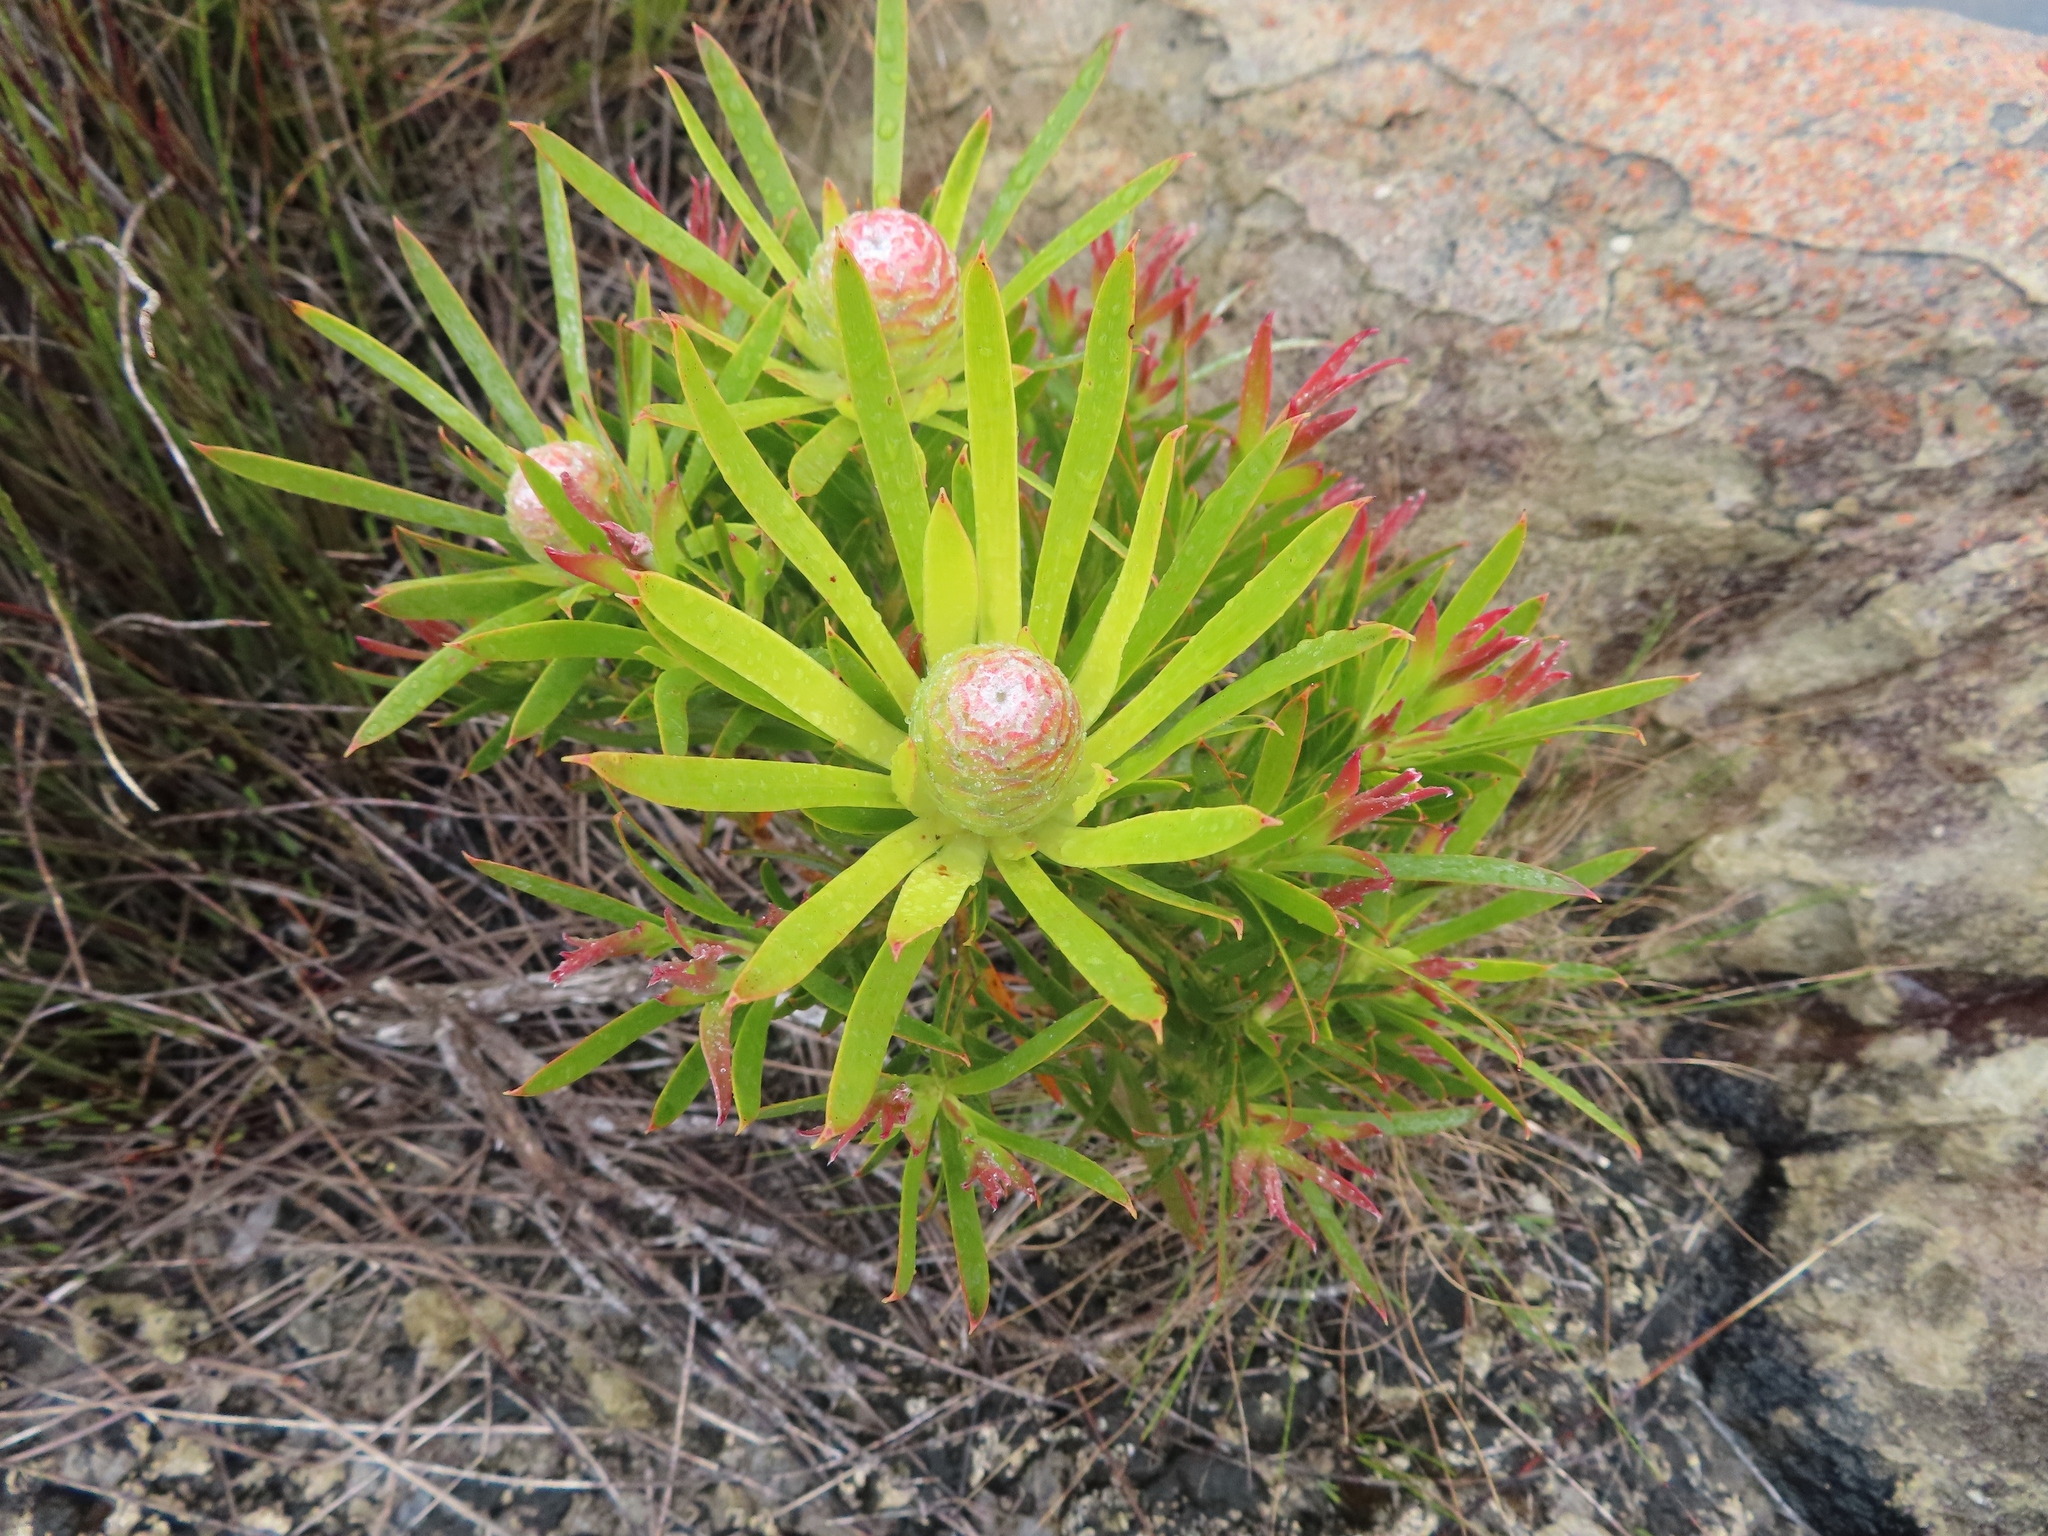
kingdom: Plantae
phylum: Tracheophyta
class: Magnoliopsida
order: Proteales
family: Proteaceae
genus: Leucadendron
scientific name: Leucadendron xanthoconus
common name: Sickle-leaf conebush
